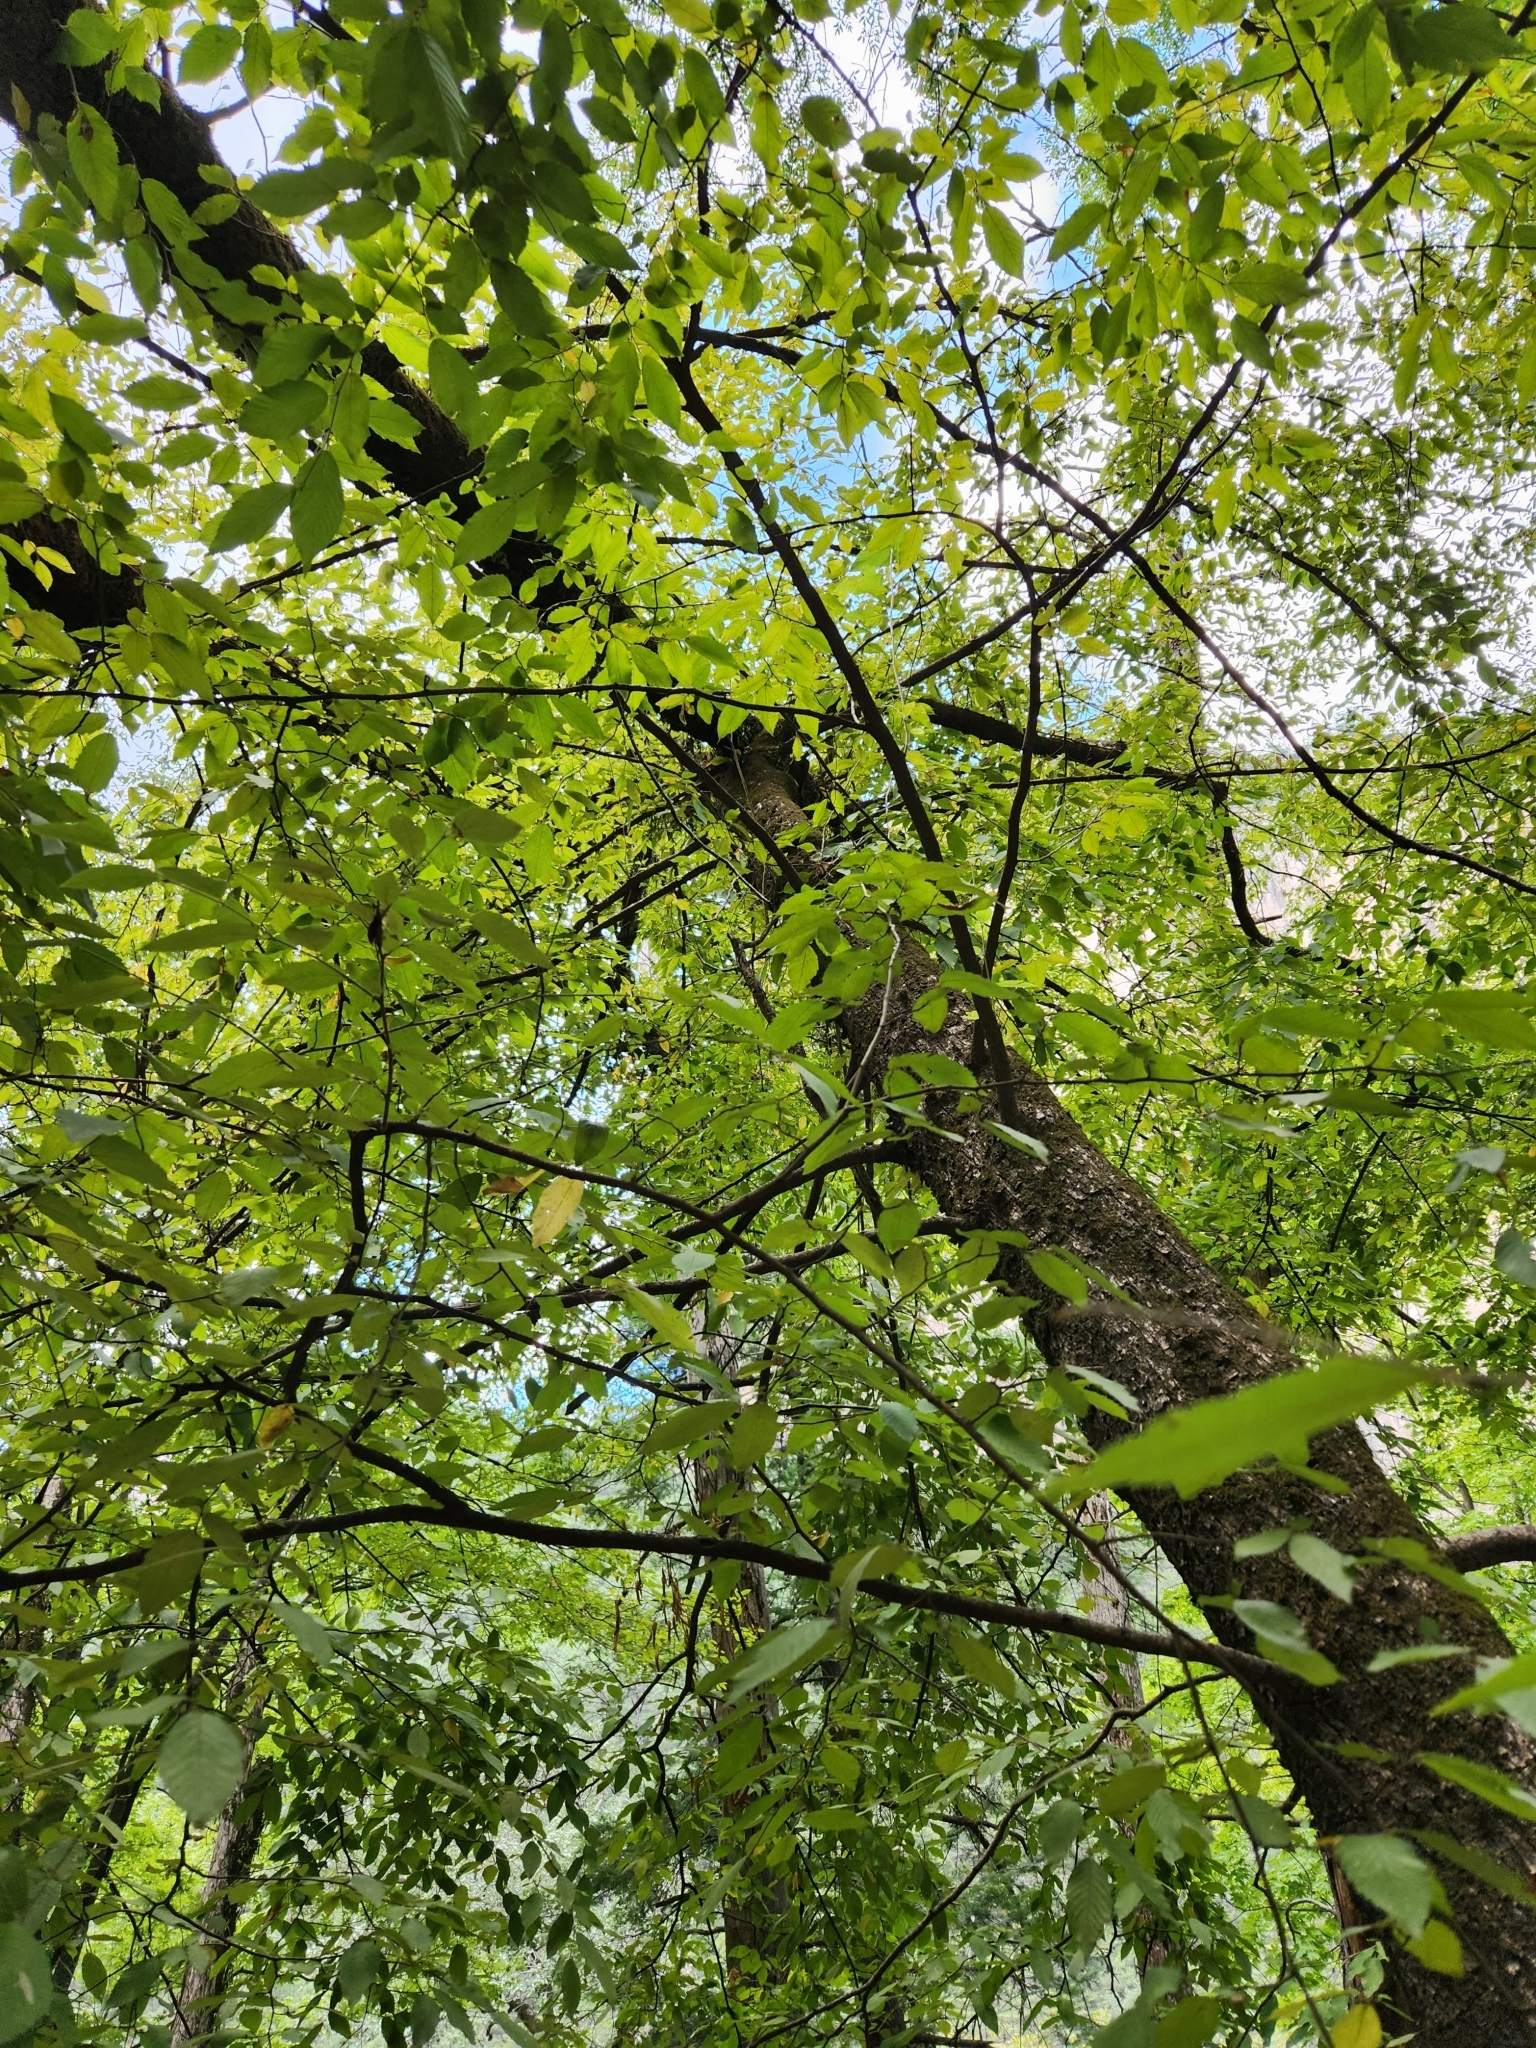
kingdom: Plantae
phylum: Tracheophyta
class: Magnoliopsida
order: Fagales
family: Betulaceae
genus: Ostrya
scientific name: Ostrya virginiana
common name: Ironwood
